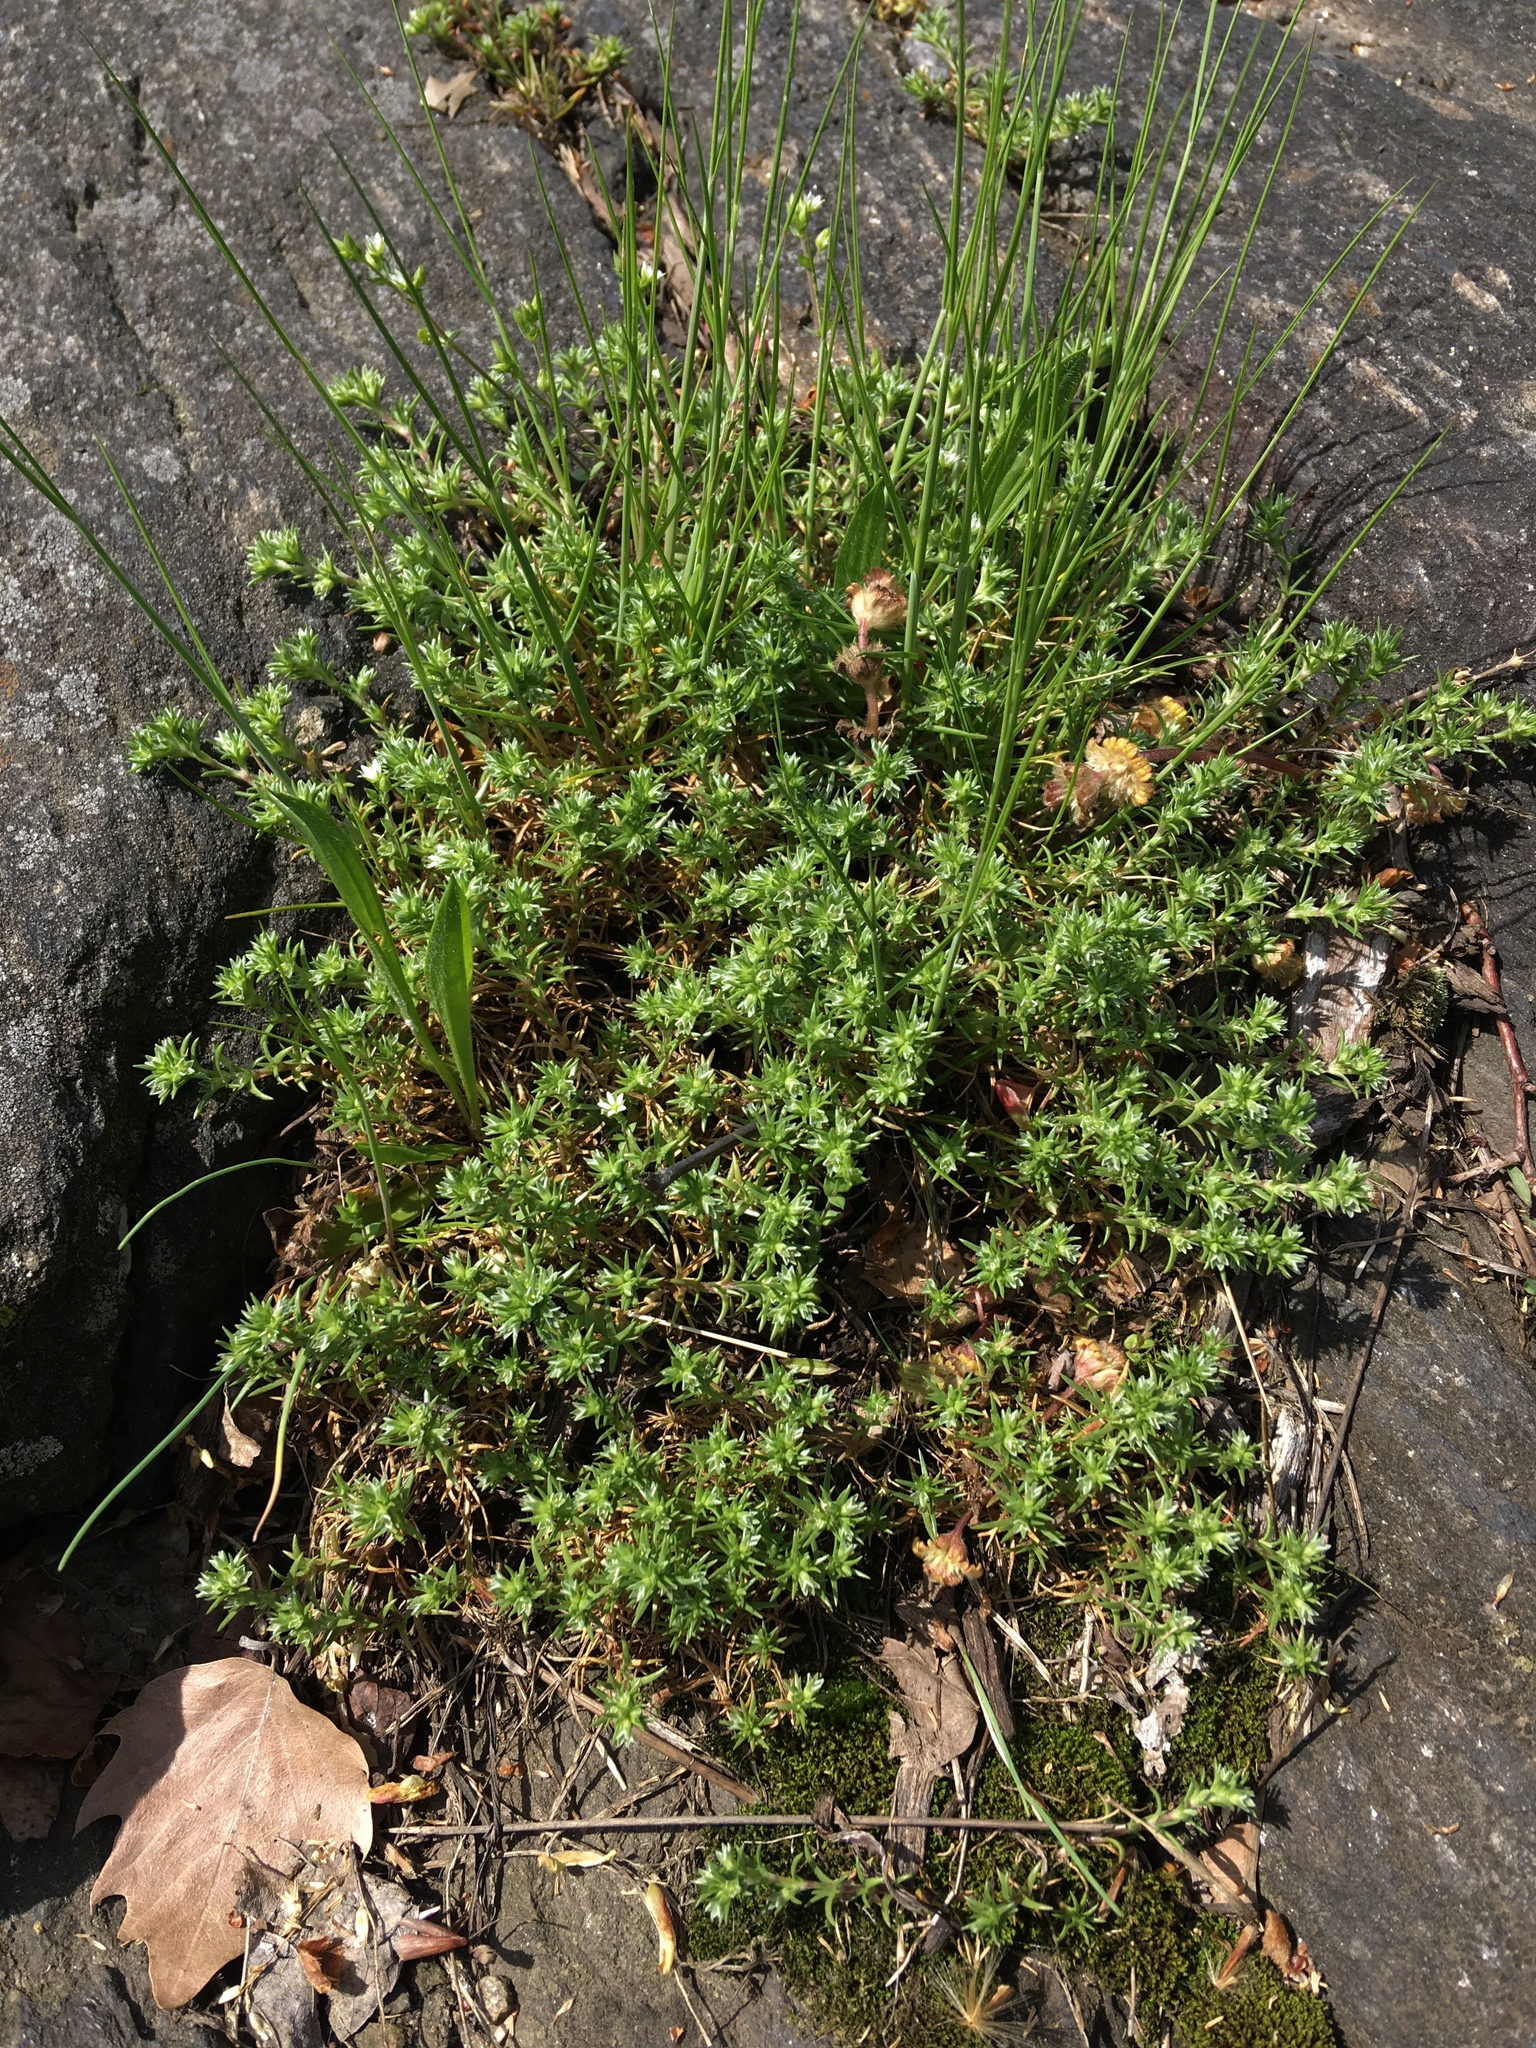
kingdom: Plantae
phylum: Tracheophyta
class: Magnoliopsida
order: Caryophyllales
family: Caryophyllaceae
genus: Scleranthus
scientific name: Scleranthus annuus
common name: Annual knawel
